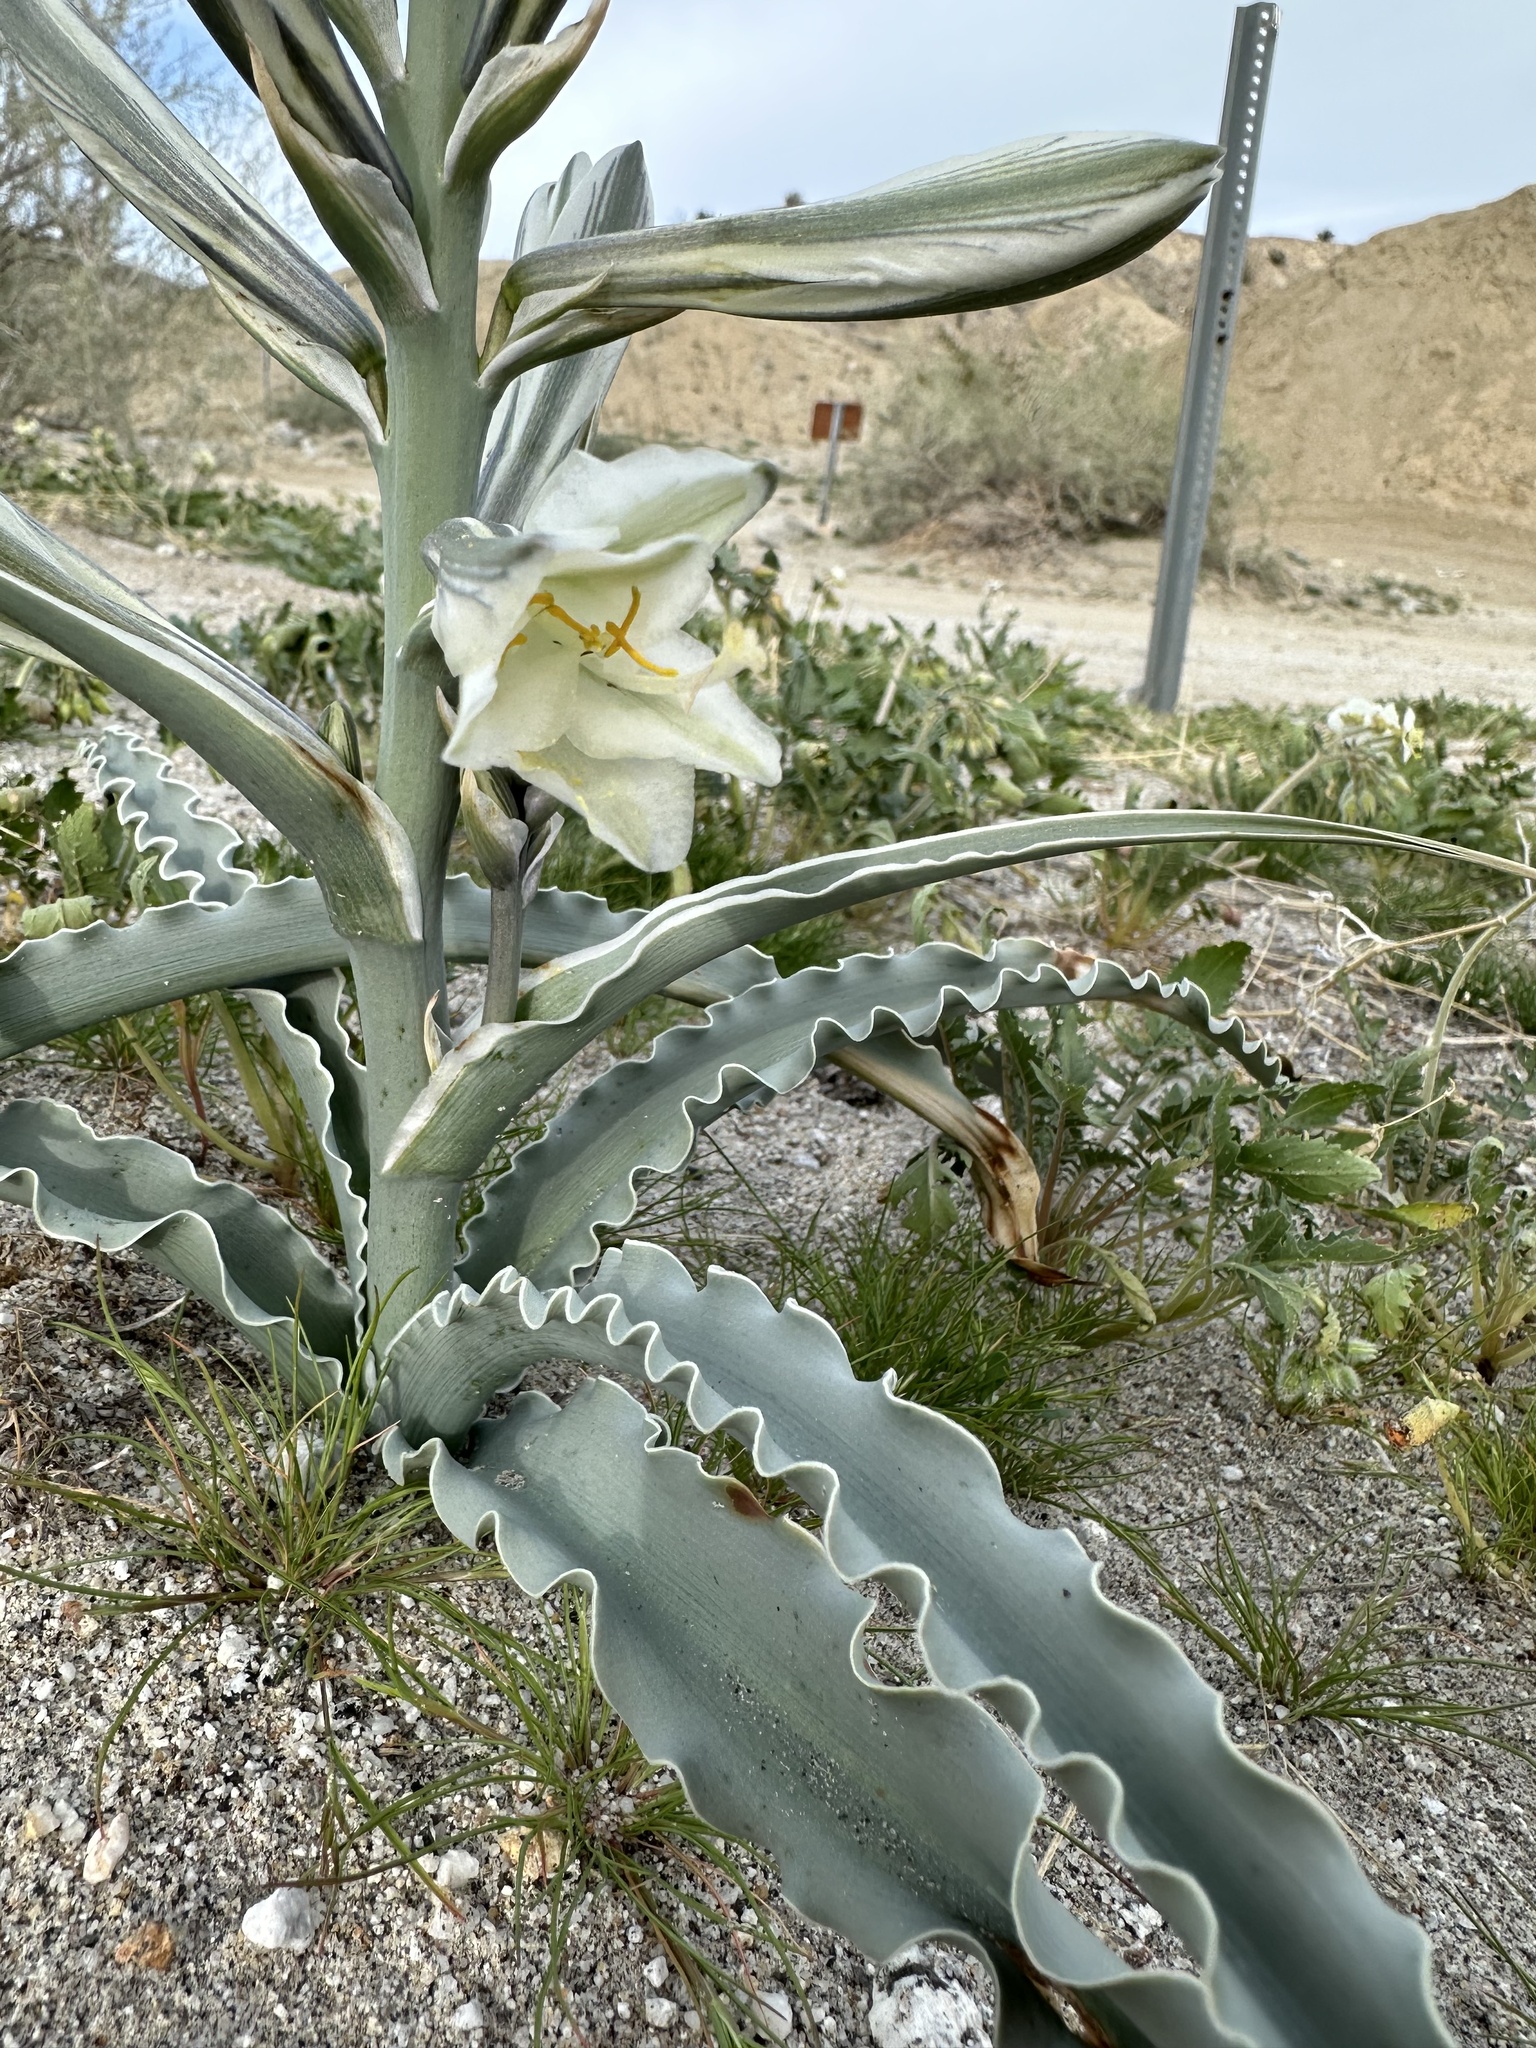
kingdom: Plantae
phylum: Tracheophyta
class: Liliopsida
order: Asparagales
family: Asparagaceae
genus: Hesperocallis
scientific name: Hesperocallis undulata
